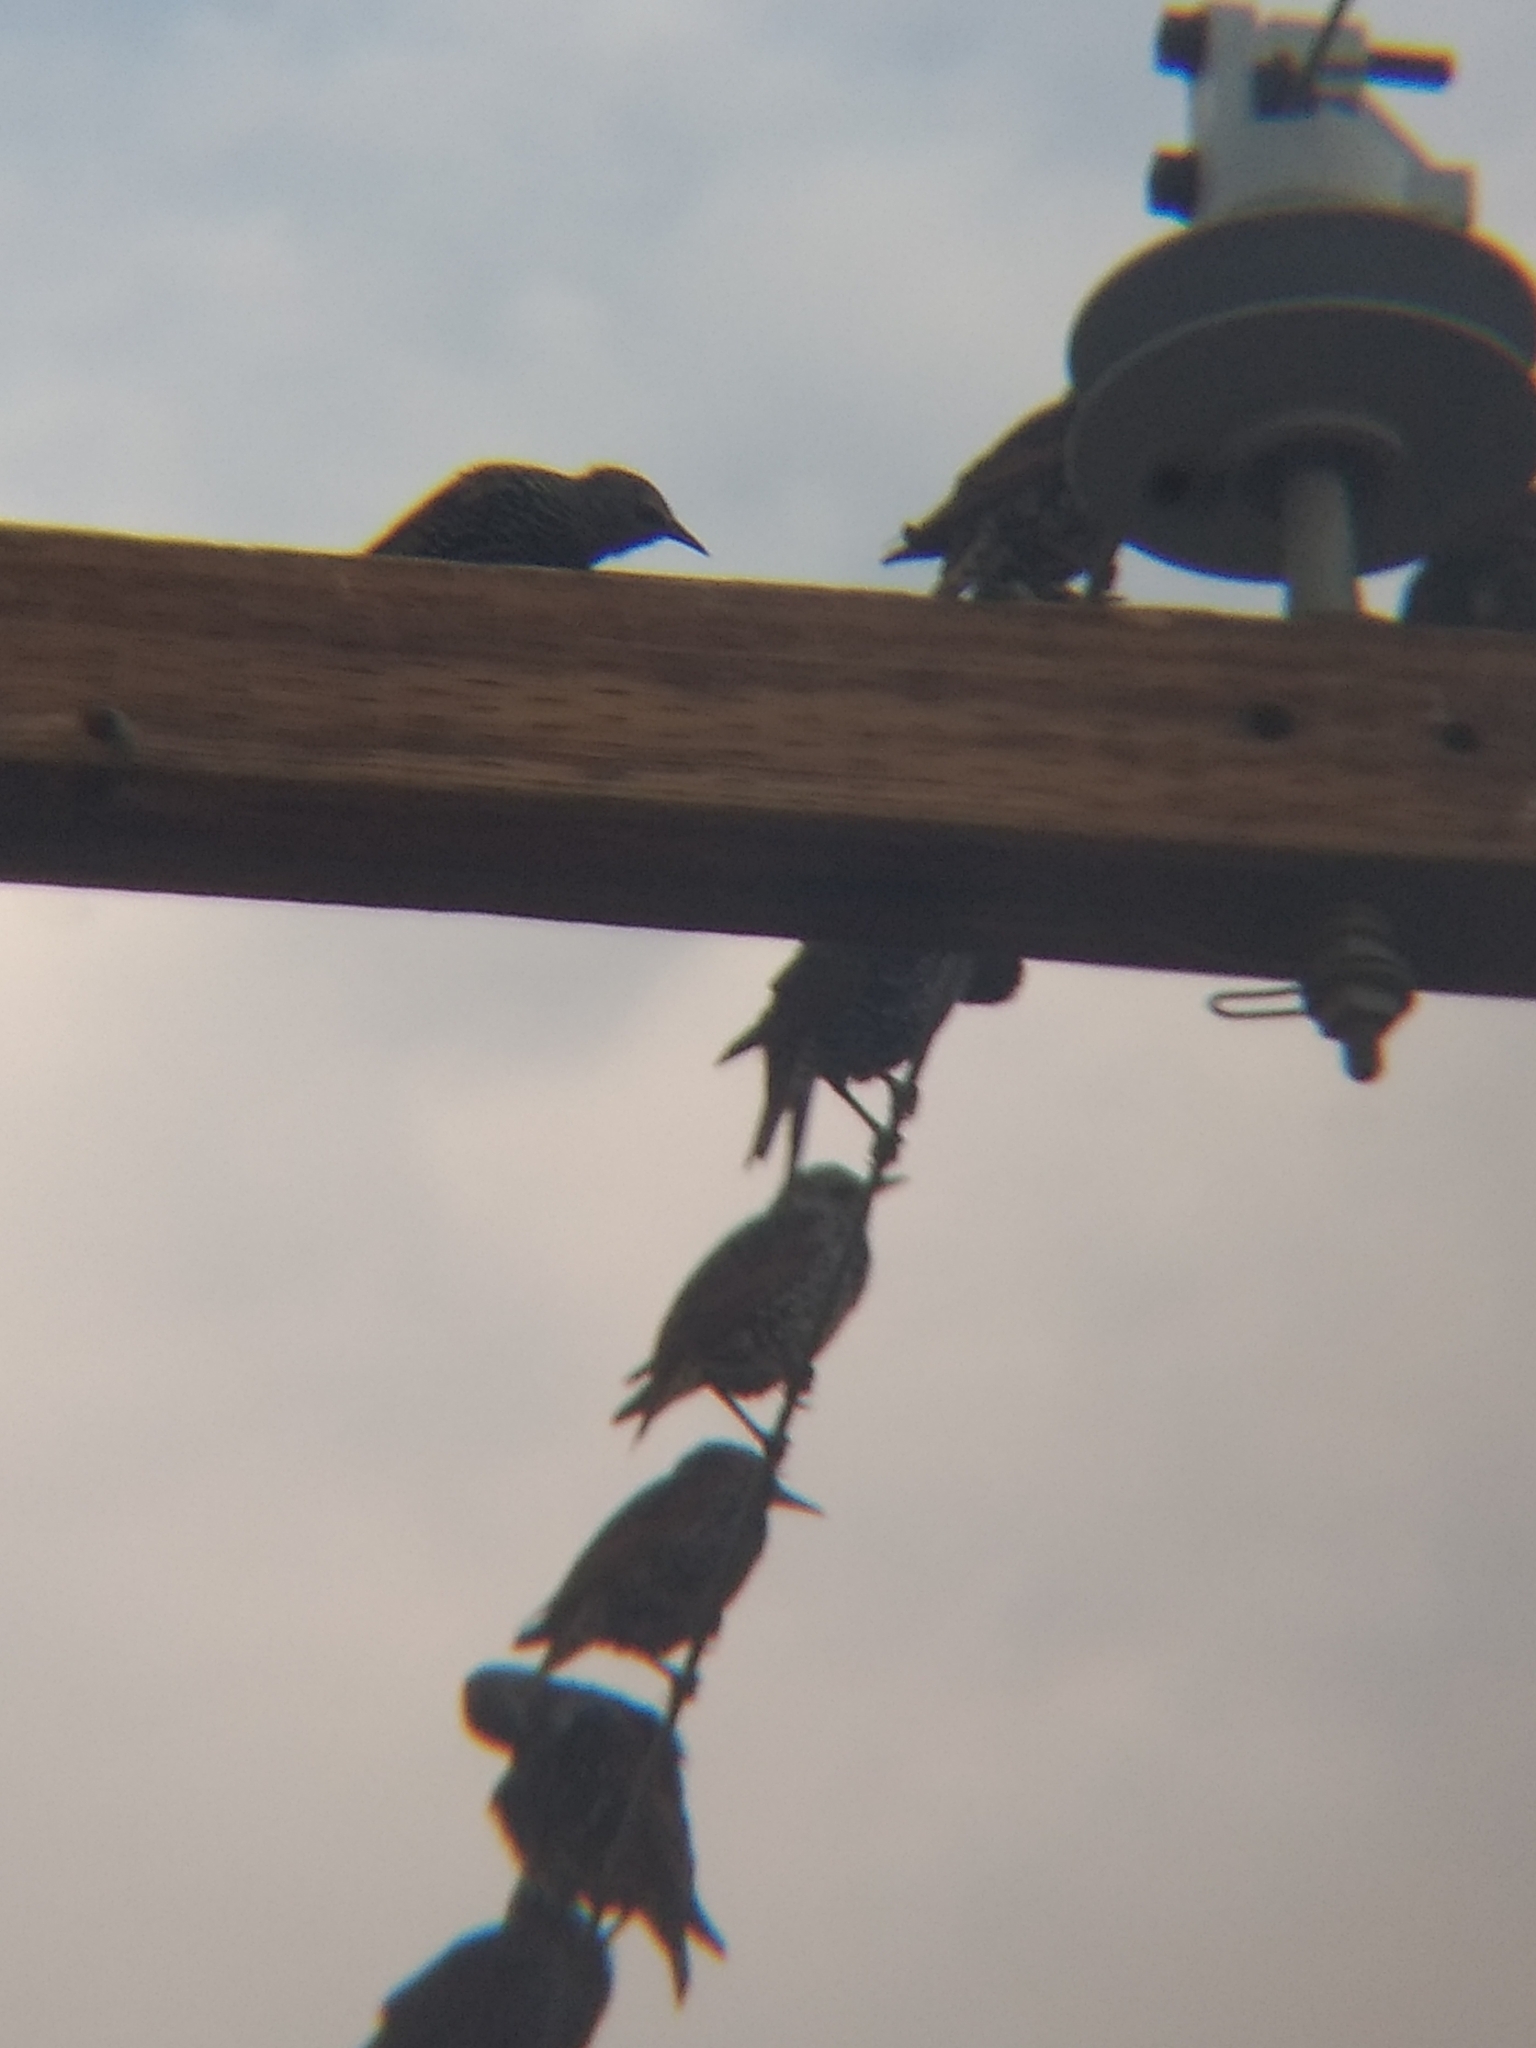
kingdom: Animalia
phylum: Chordata
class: Aves
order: Passeriformes
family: Sturnidae
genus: Sturnus
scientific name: Sturnus vulgaris
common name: Common starling
